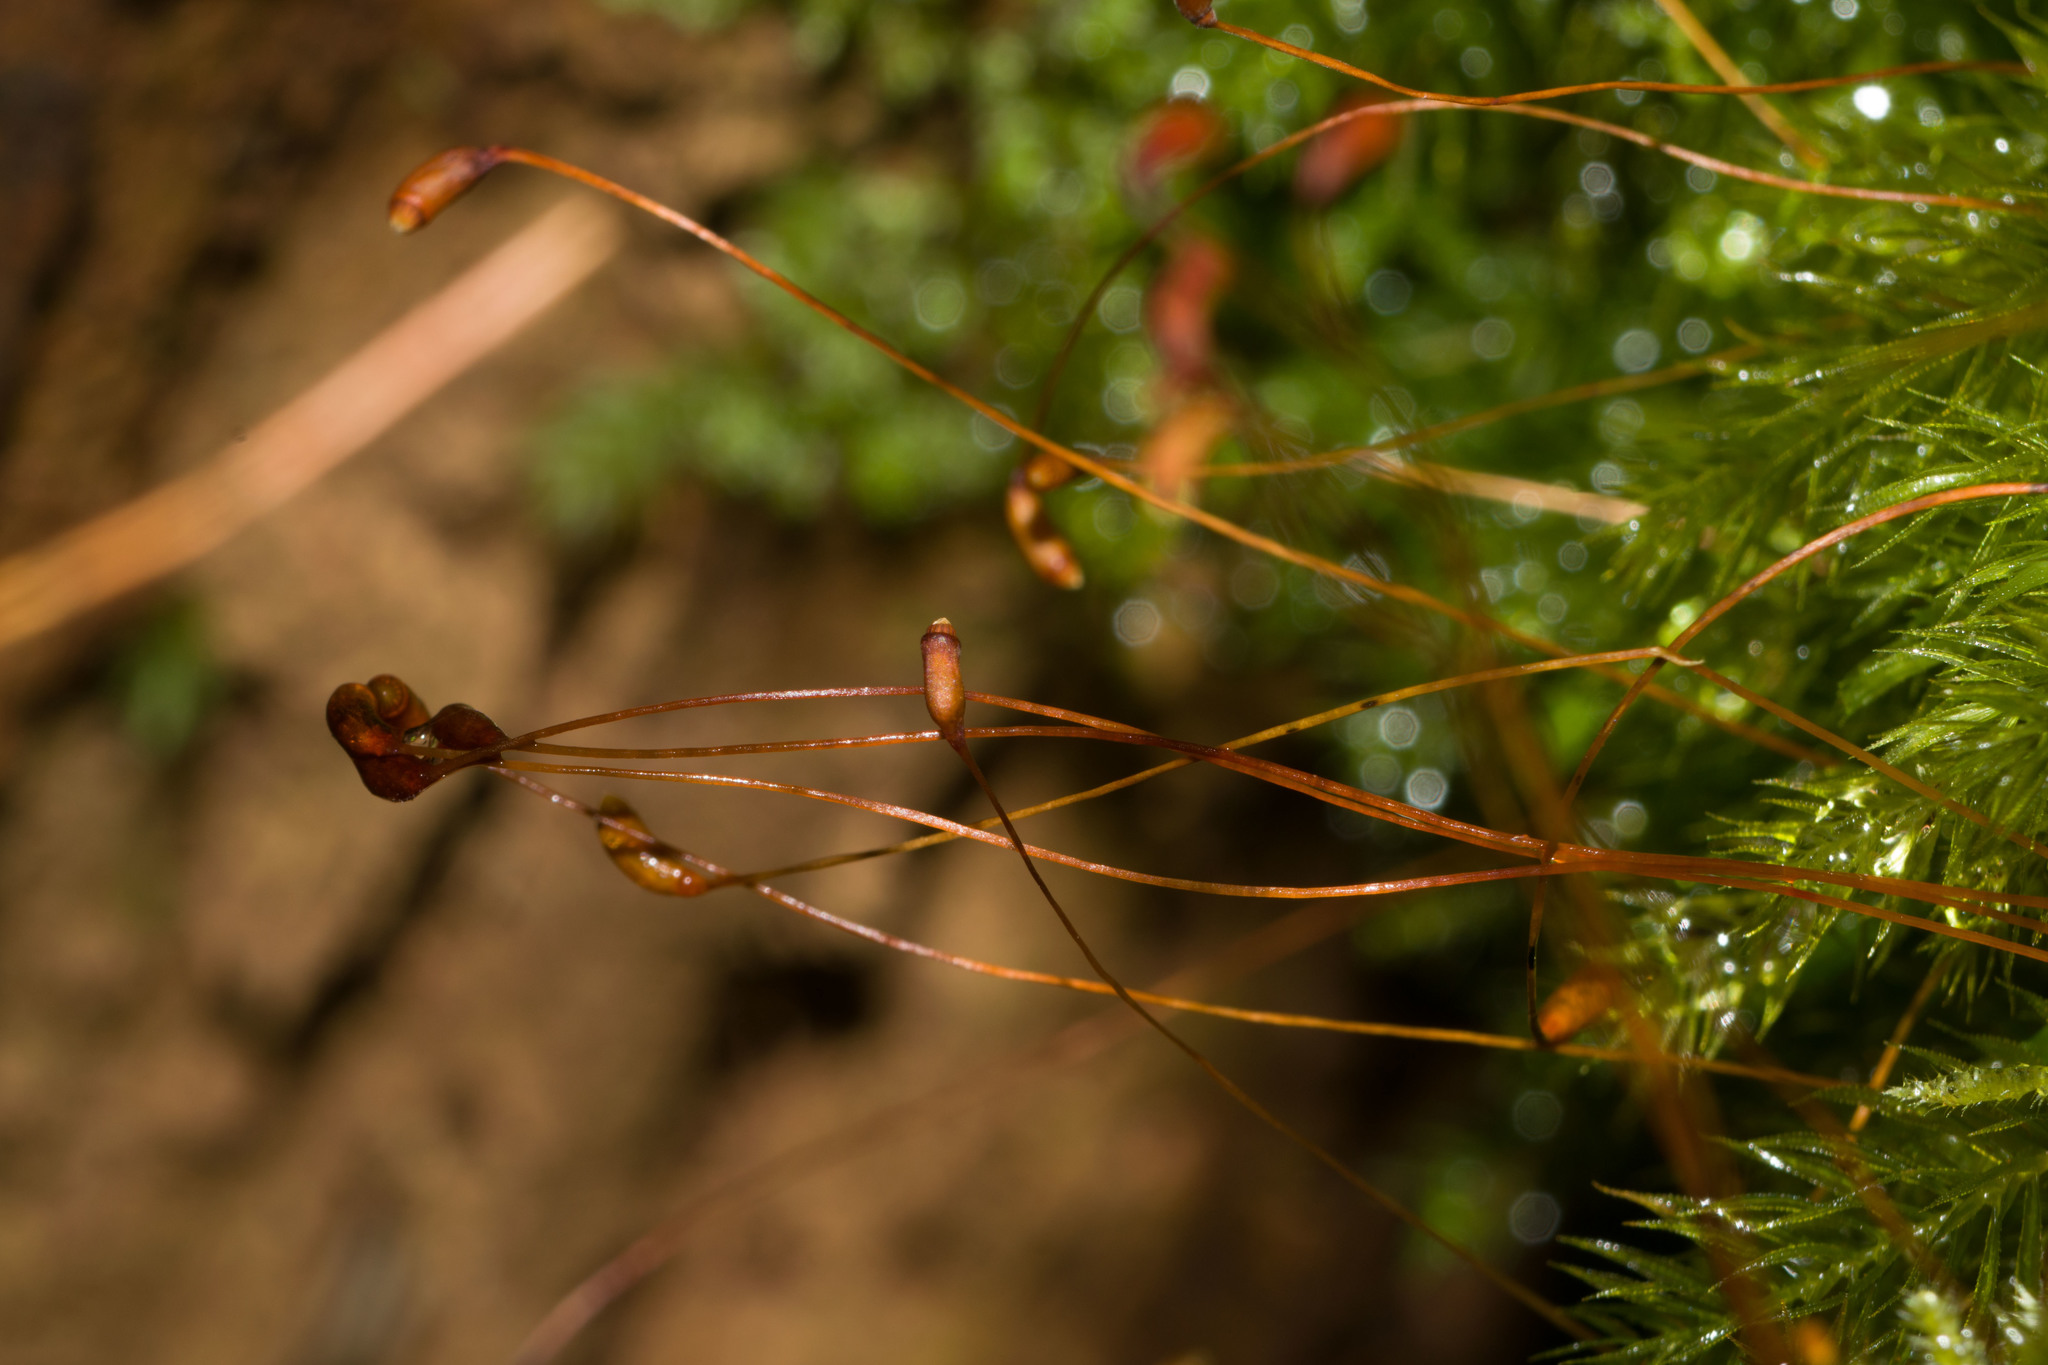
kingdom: Plantae
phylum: Bryophyta
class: Bryopsida
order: Rhizogoniales
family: Calomniaceae
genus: Pyrrhobryum
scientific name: Pyrrhobryum spiniforme
